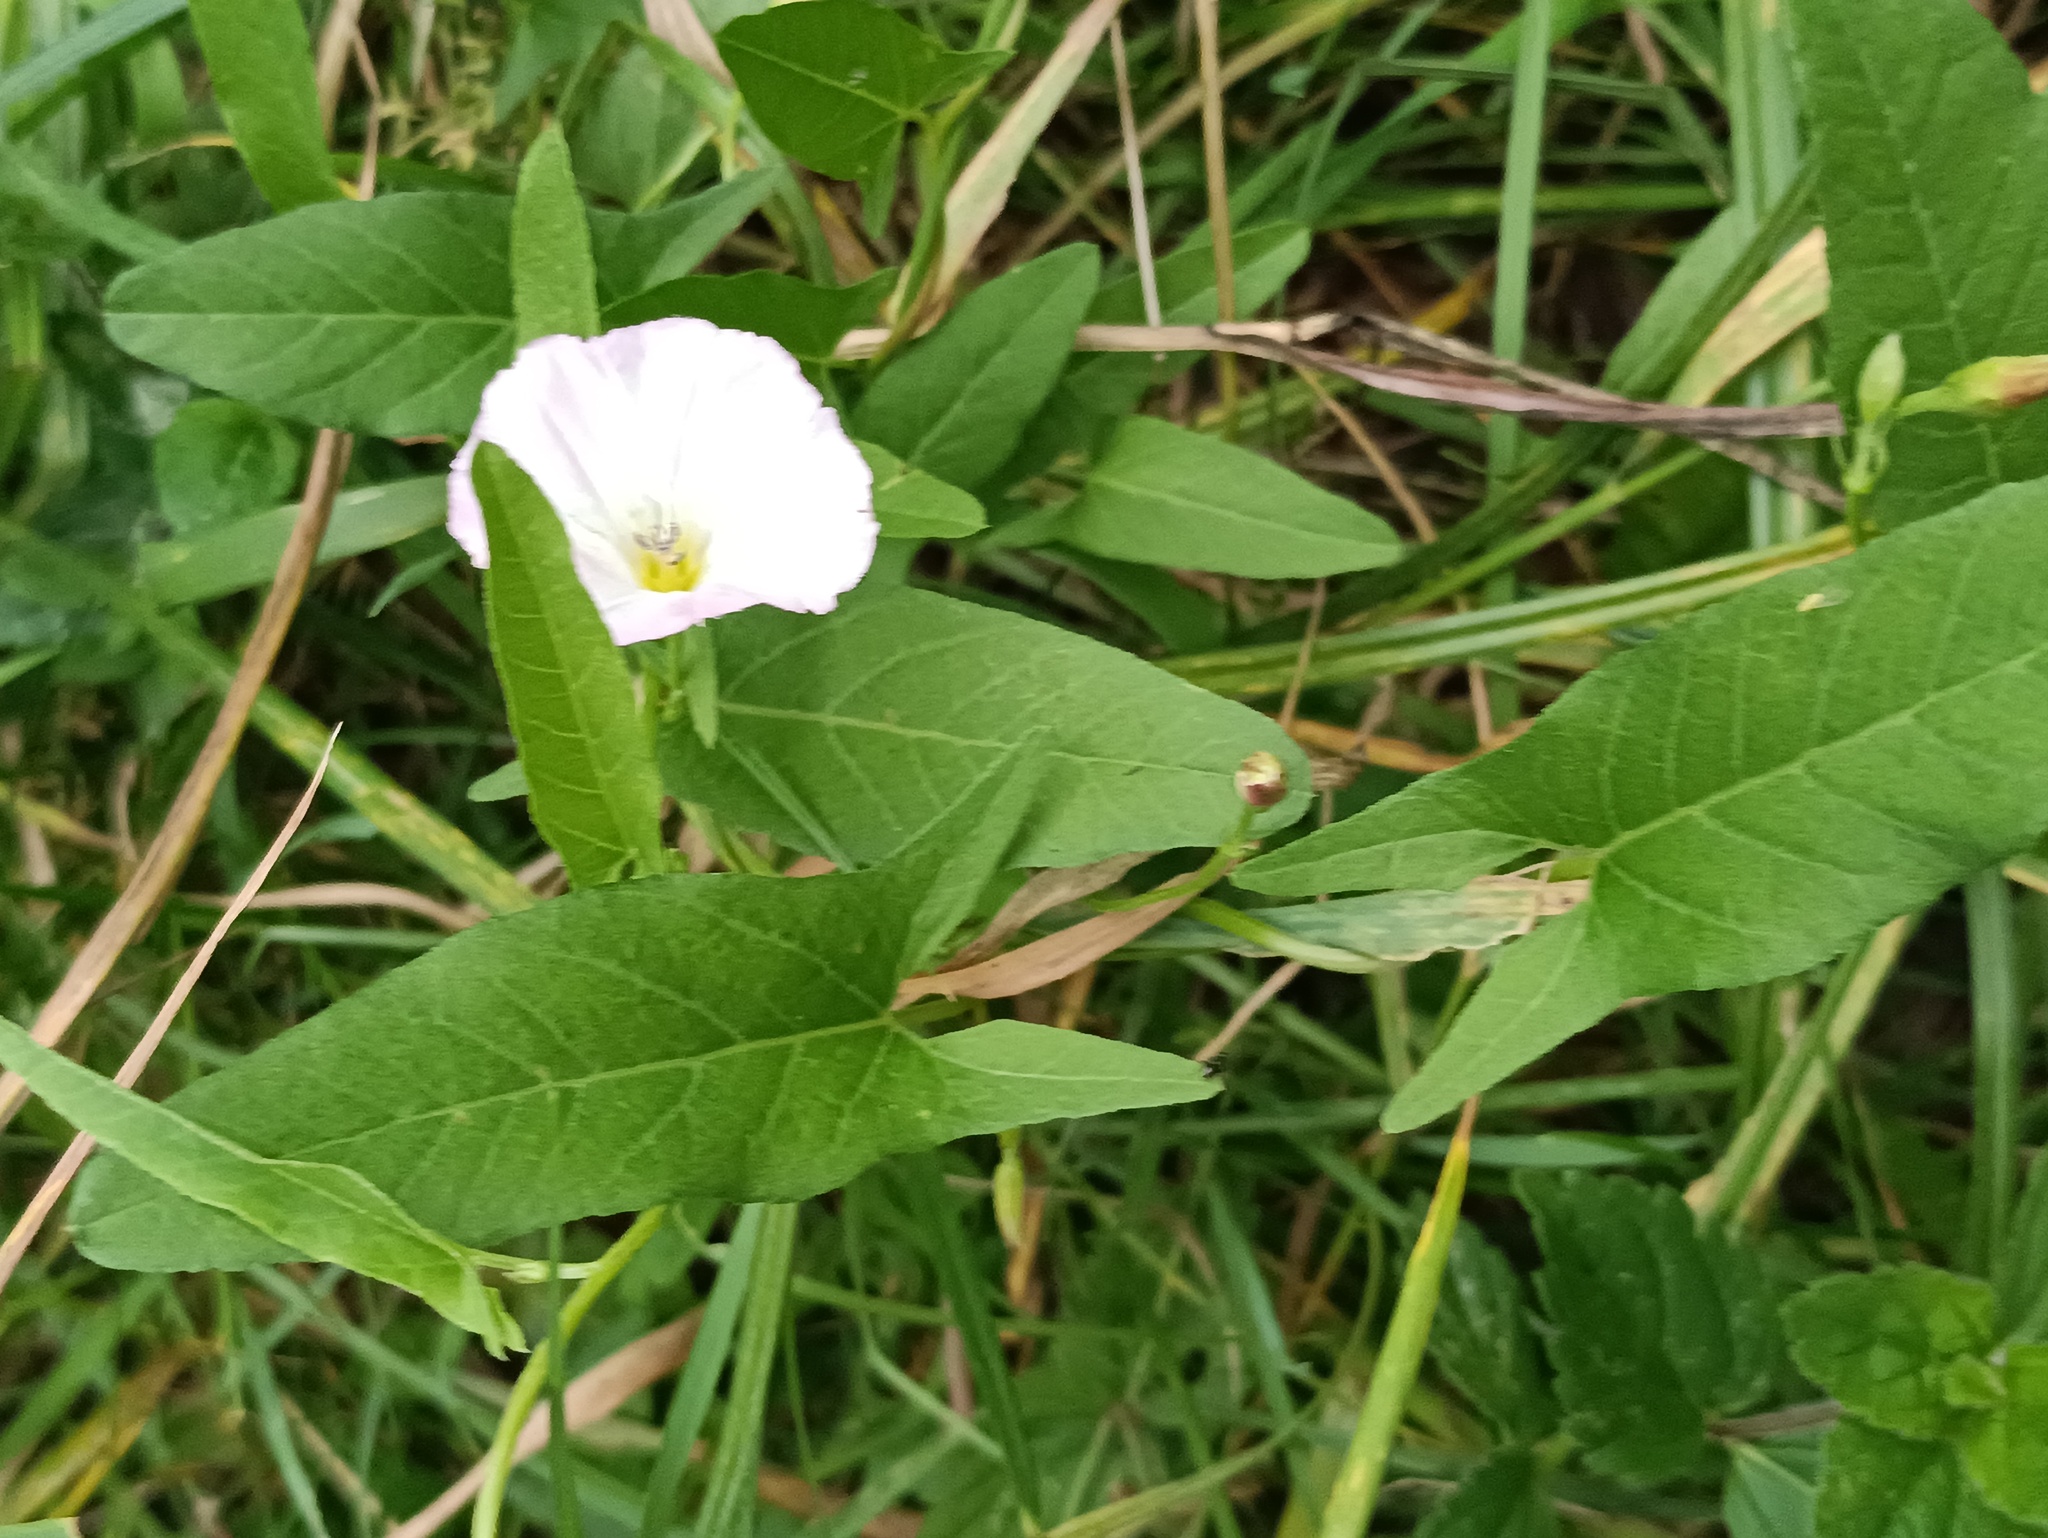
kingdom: Plantae
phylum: Tracheophyta
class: Magnoliopsida
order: Solanales
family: Convolvulaceae
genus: Convolvulus
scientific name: Convolvulus arvensis
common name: Field bindweed
